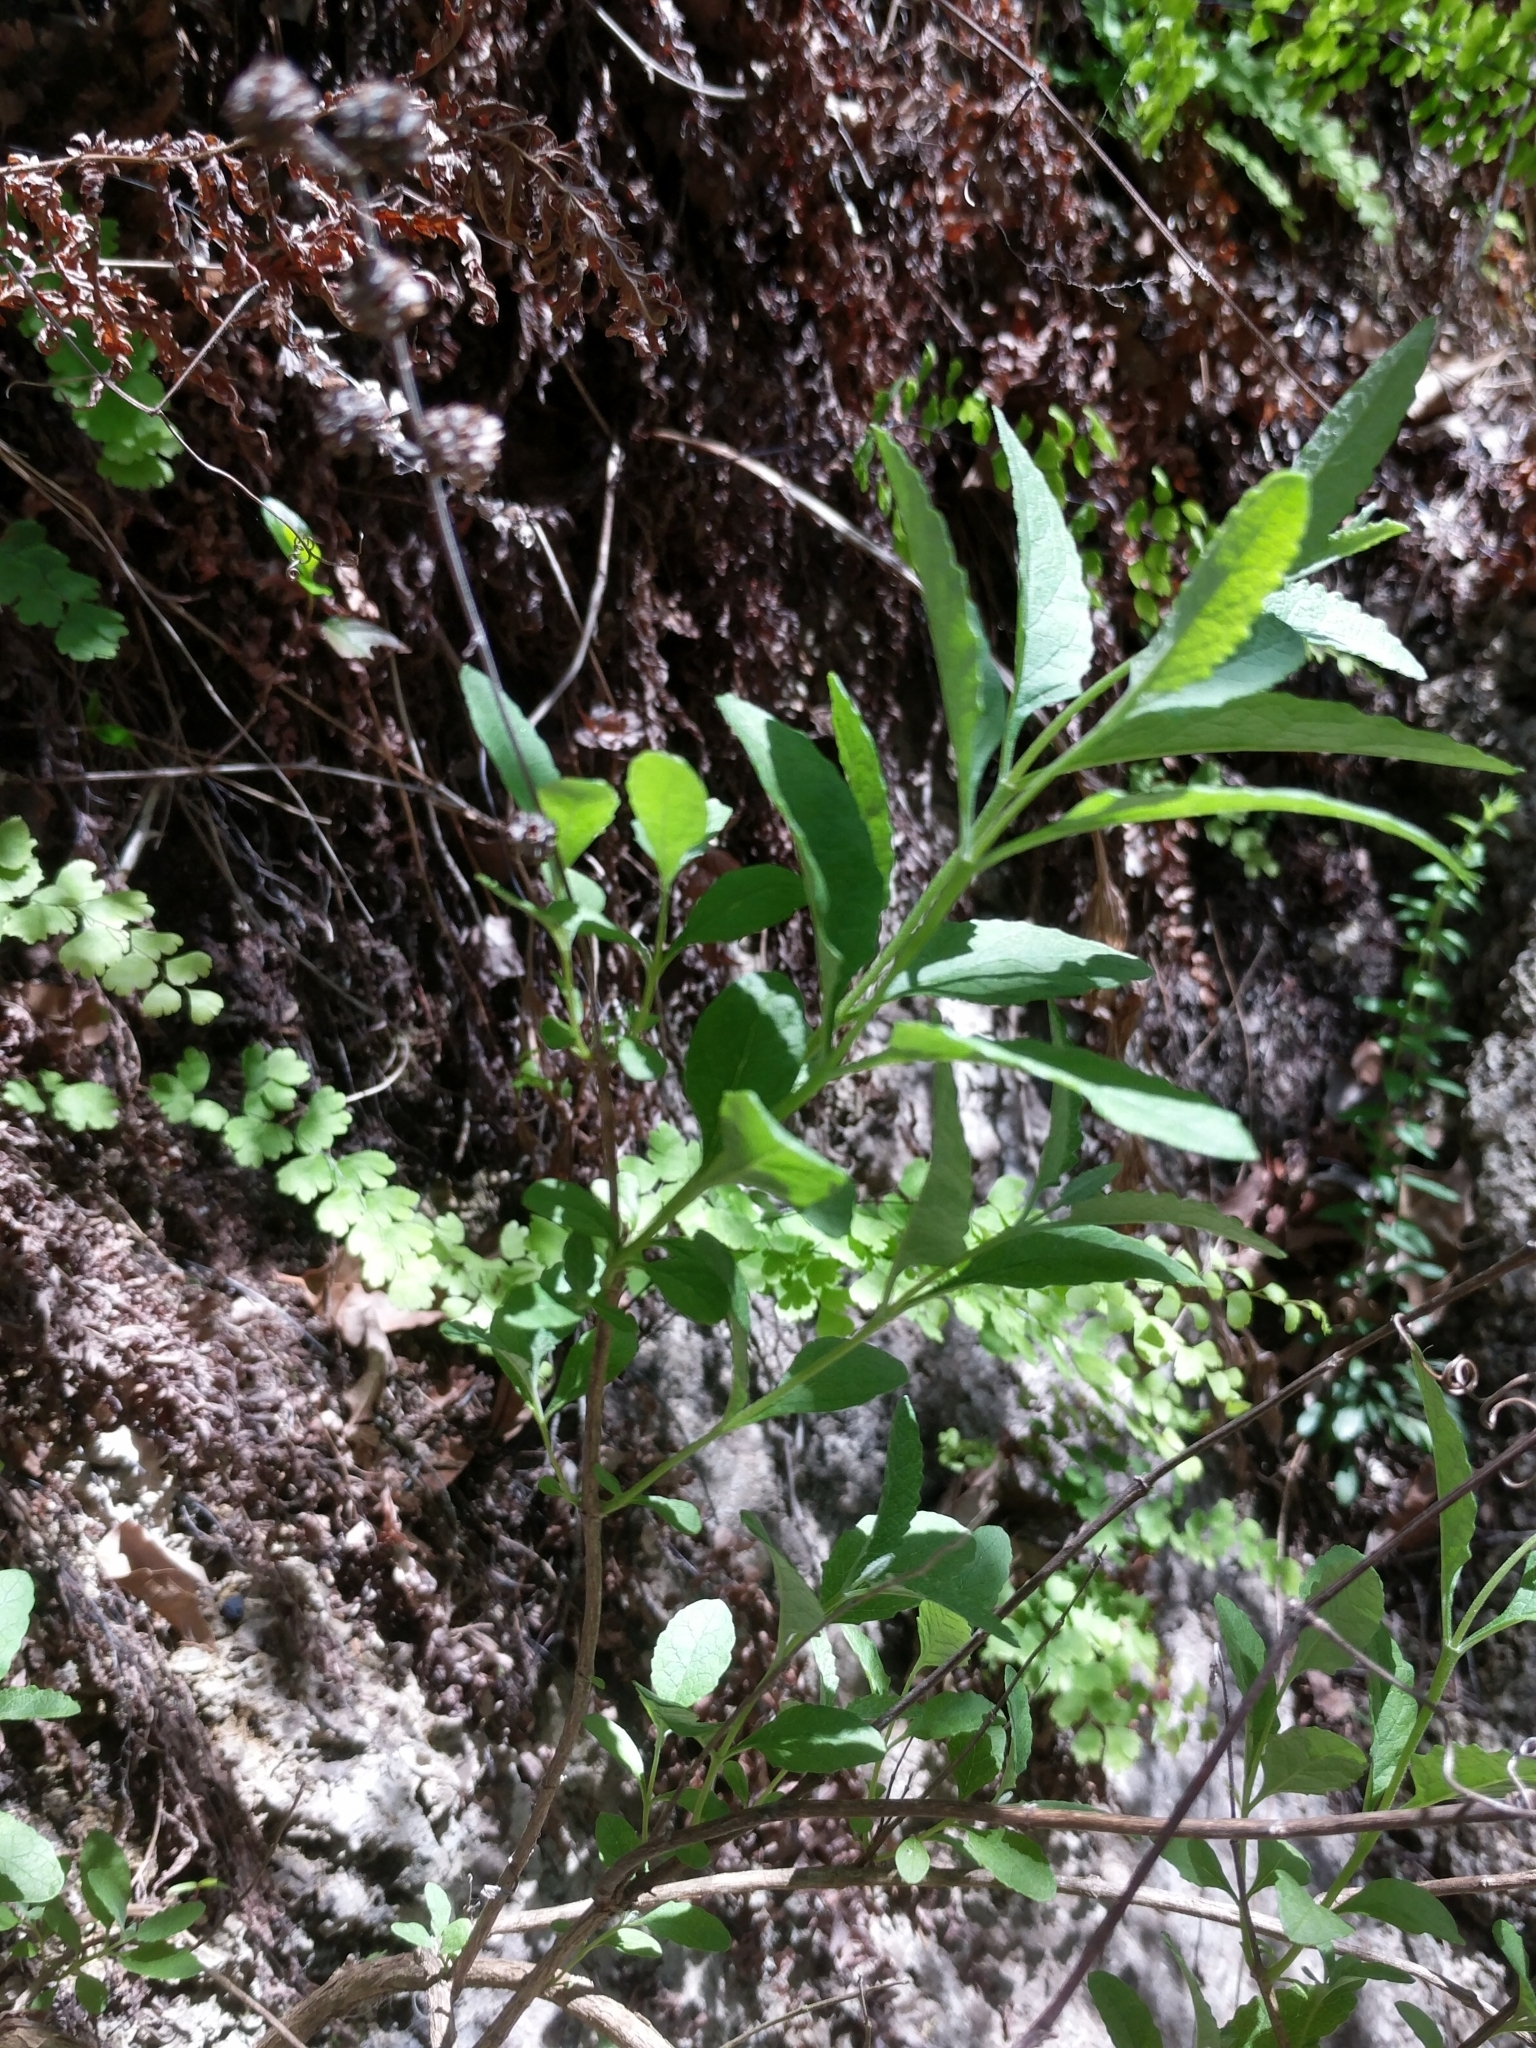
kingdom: Plantae
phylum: Tracheophyta
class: Magnoliopsida
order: Lamiales
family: Scrophulariaceae
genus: Buddleja
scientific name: Buddleja racemosa
